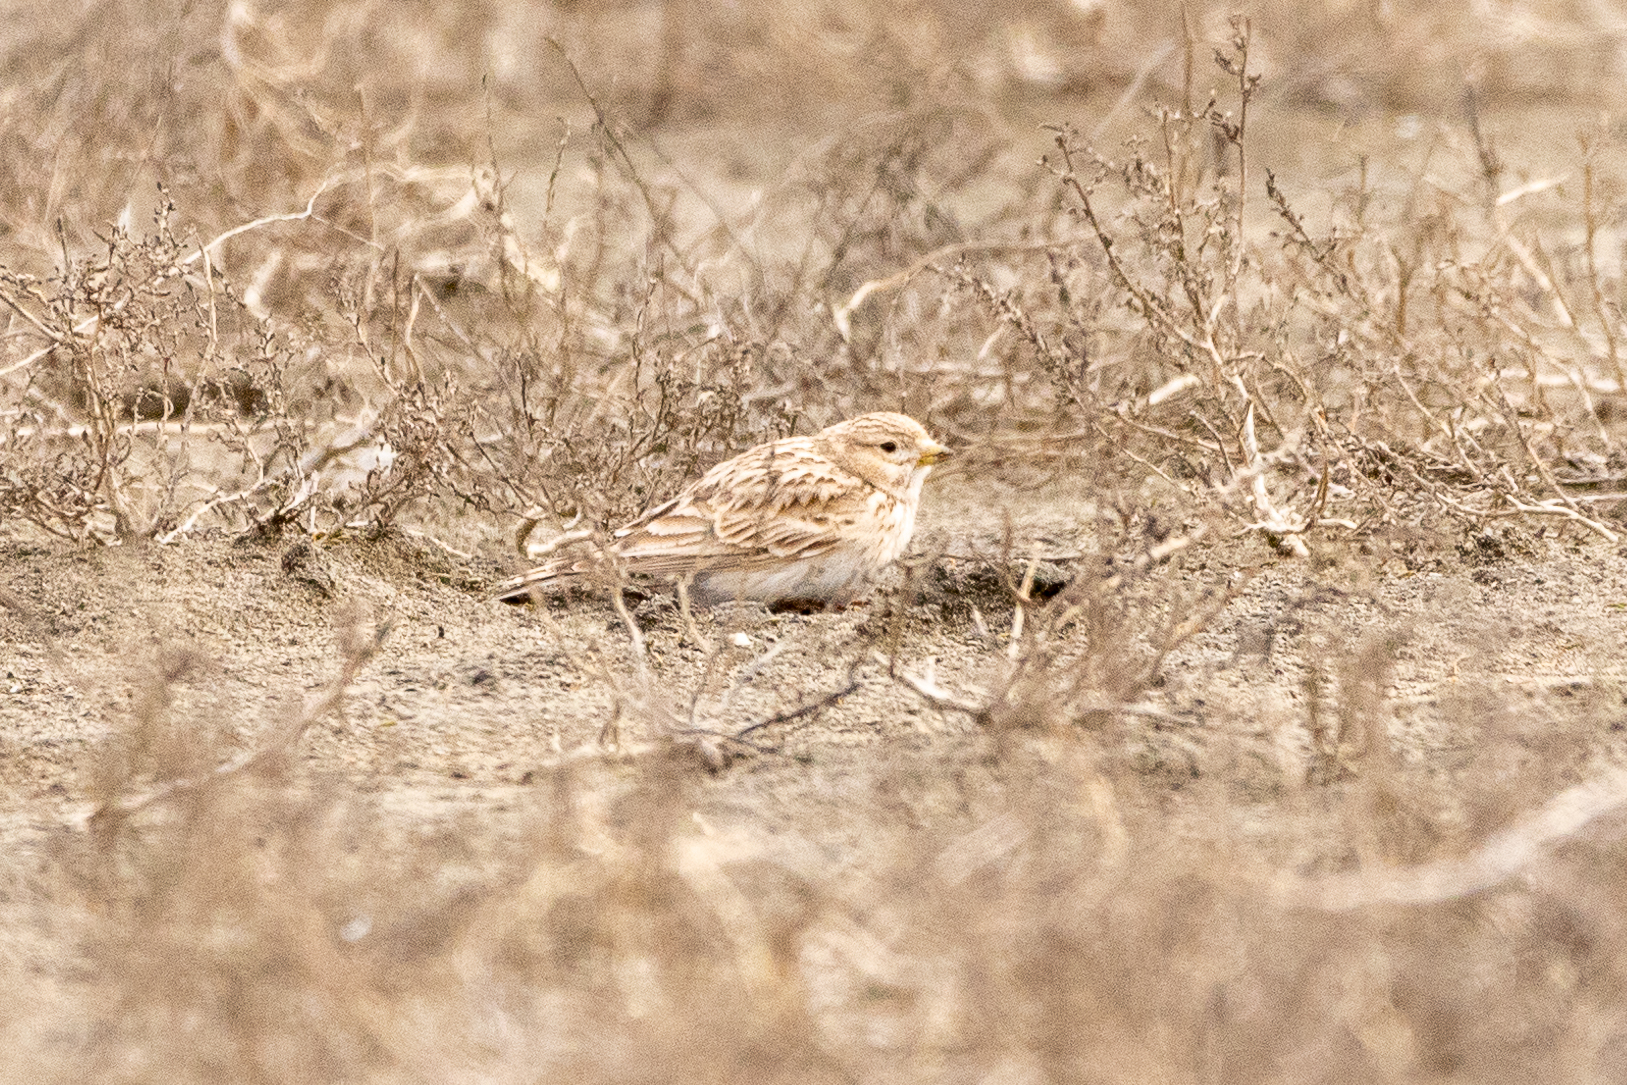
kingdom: Animalia
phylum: Chordata
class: Aves
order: Passeriformes
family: Alaudidae
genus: Calandrella
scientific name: Calandrella rufescens
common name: Lesser short-toed lark
